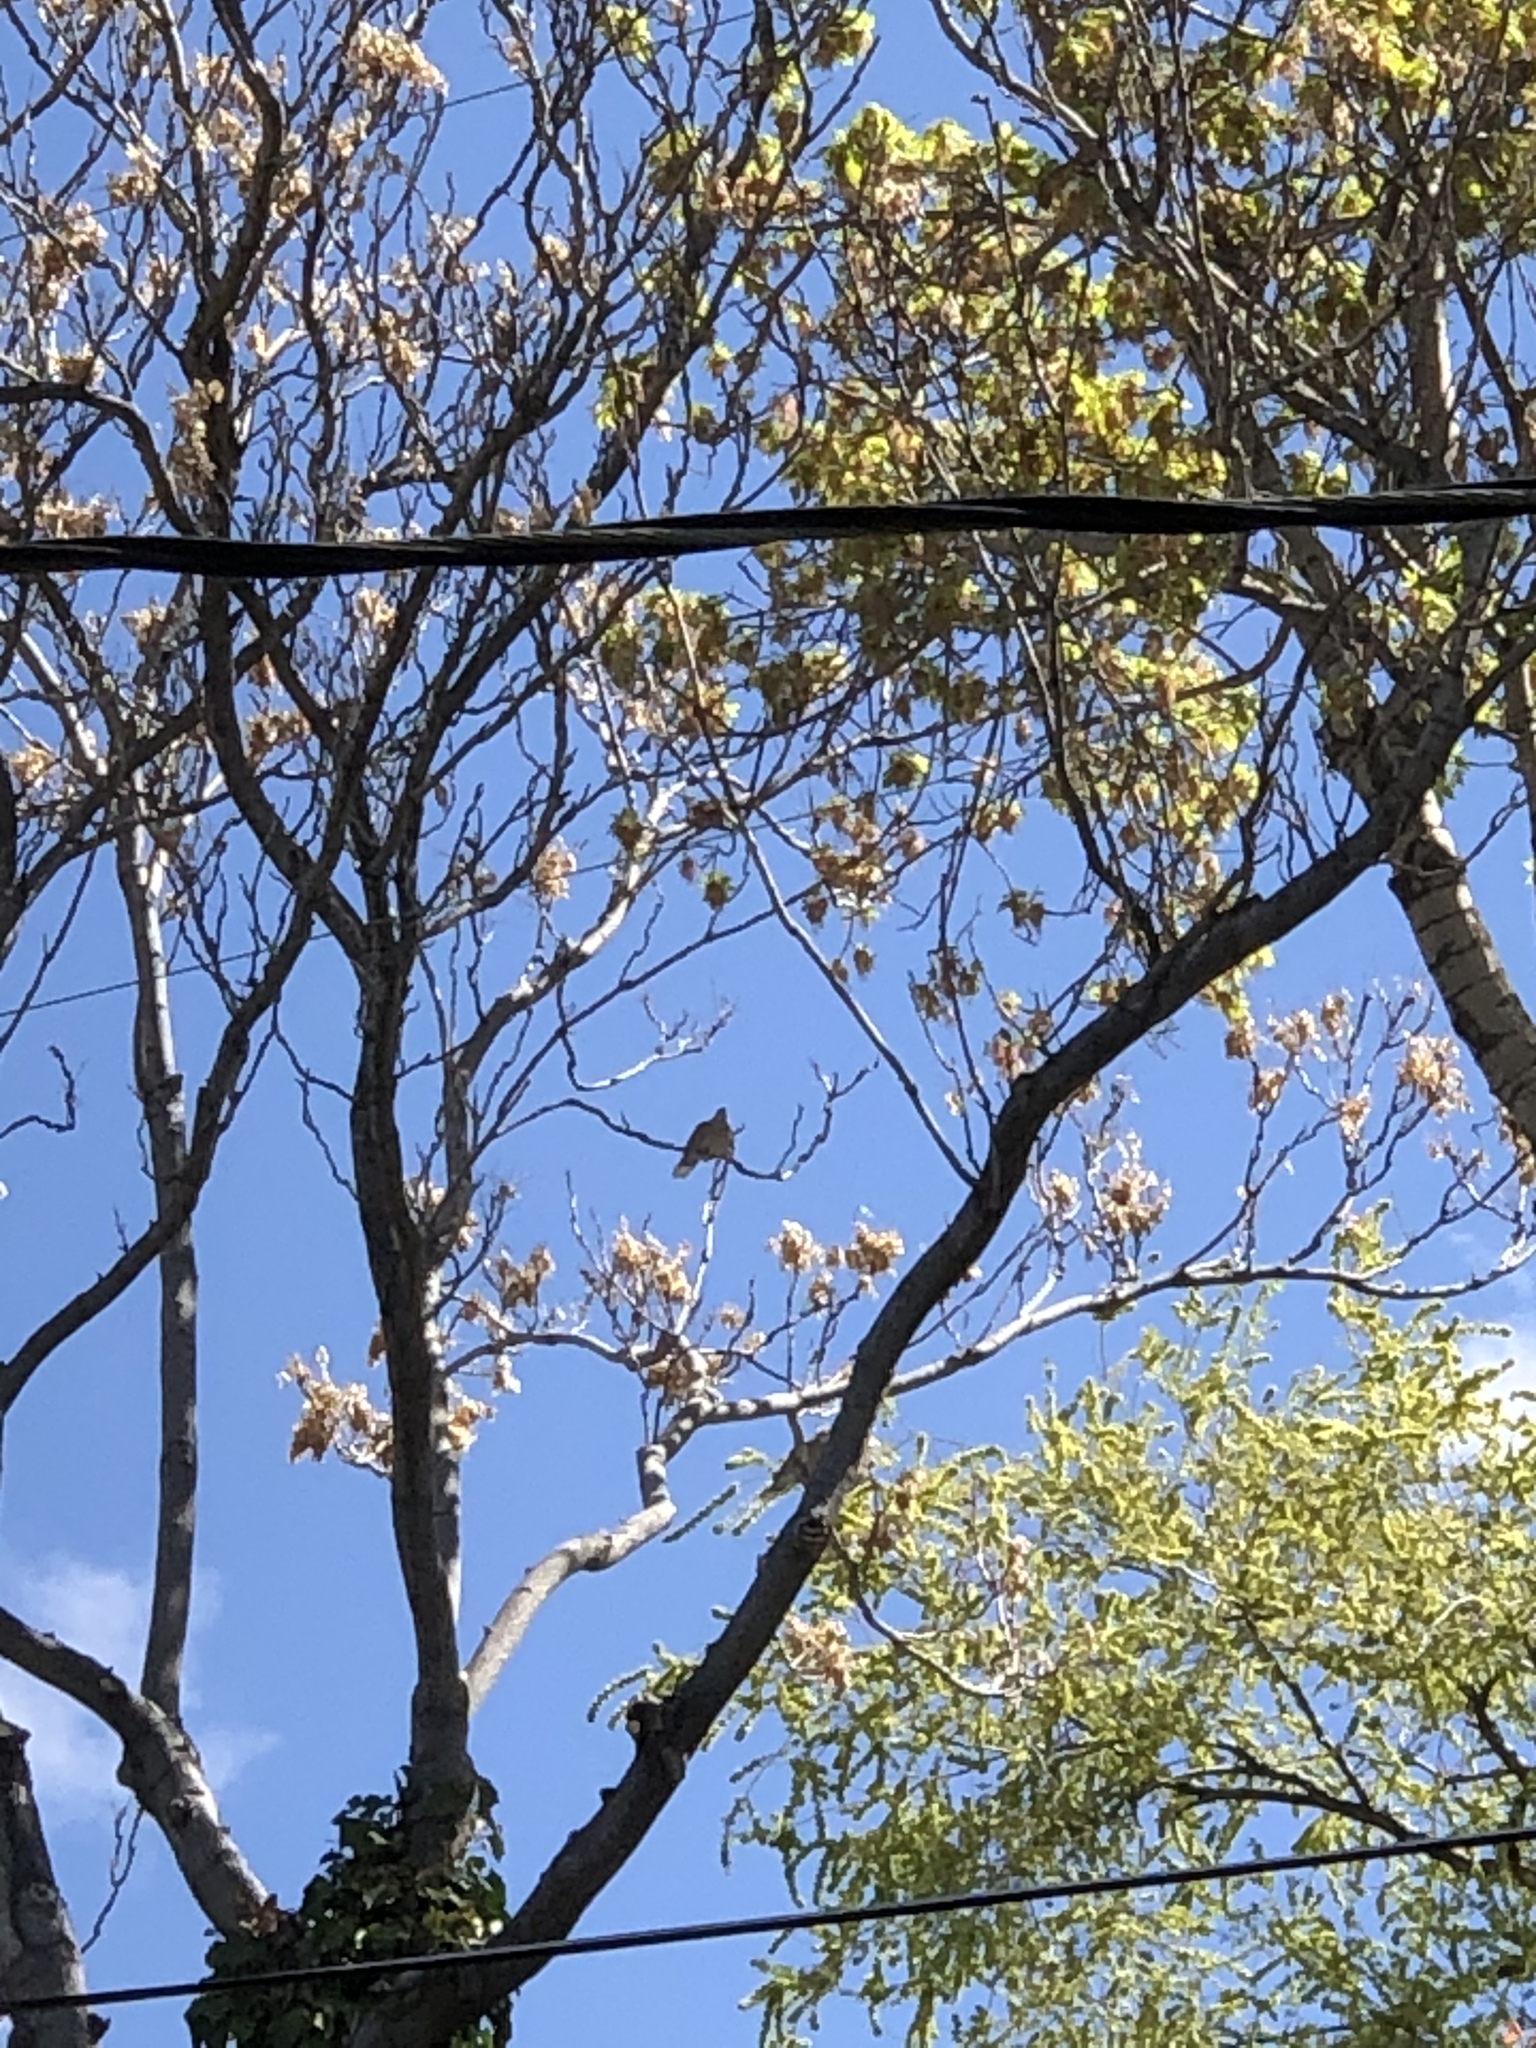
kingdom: Animalia
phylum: Chordata
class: Aves
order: Columbiformes
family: Columbidae
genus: Zenaida
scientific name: Zenaida macroura
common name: Mourning dove
